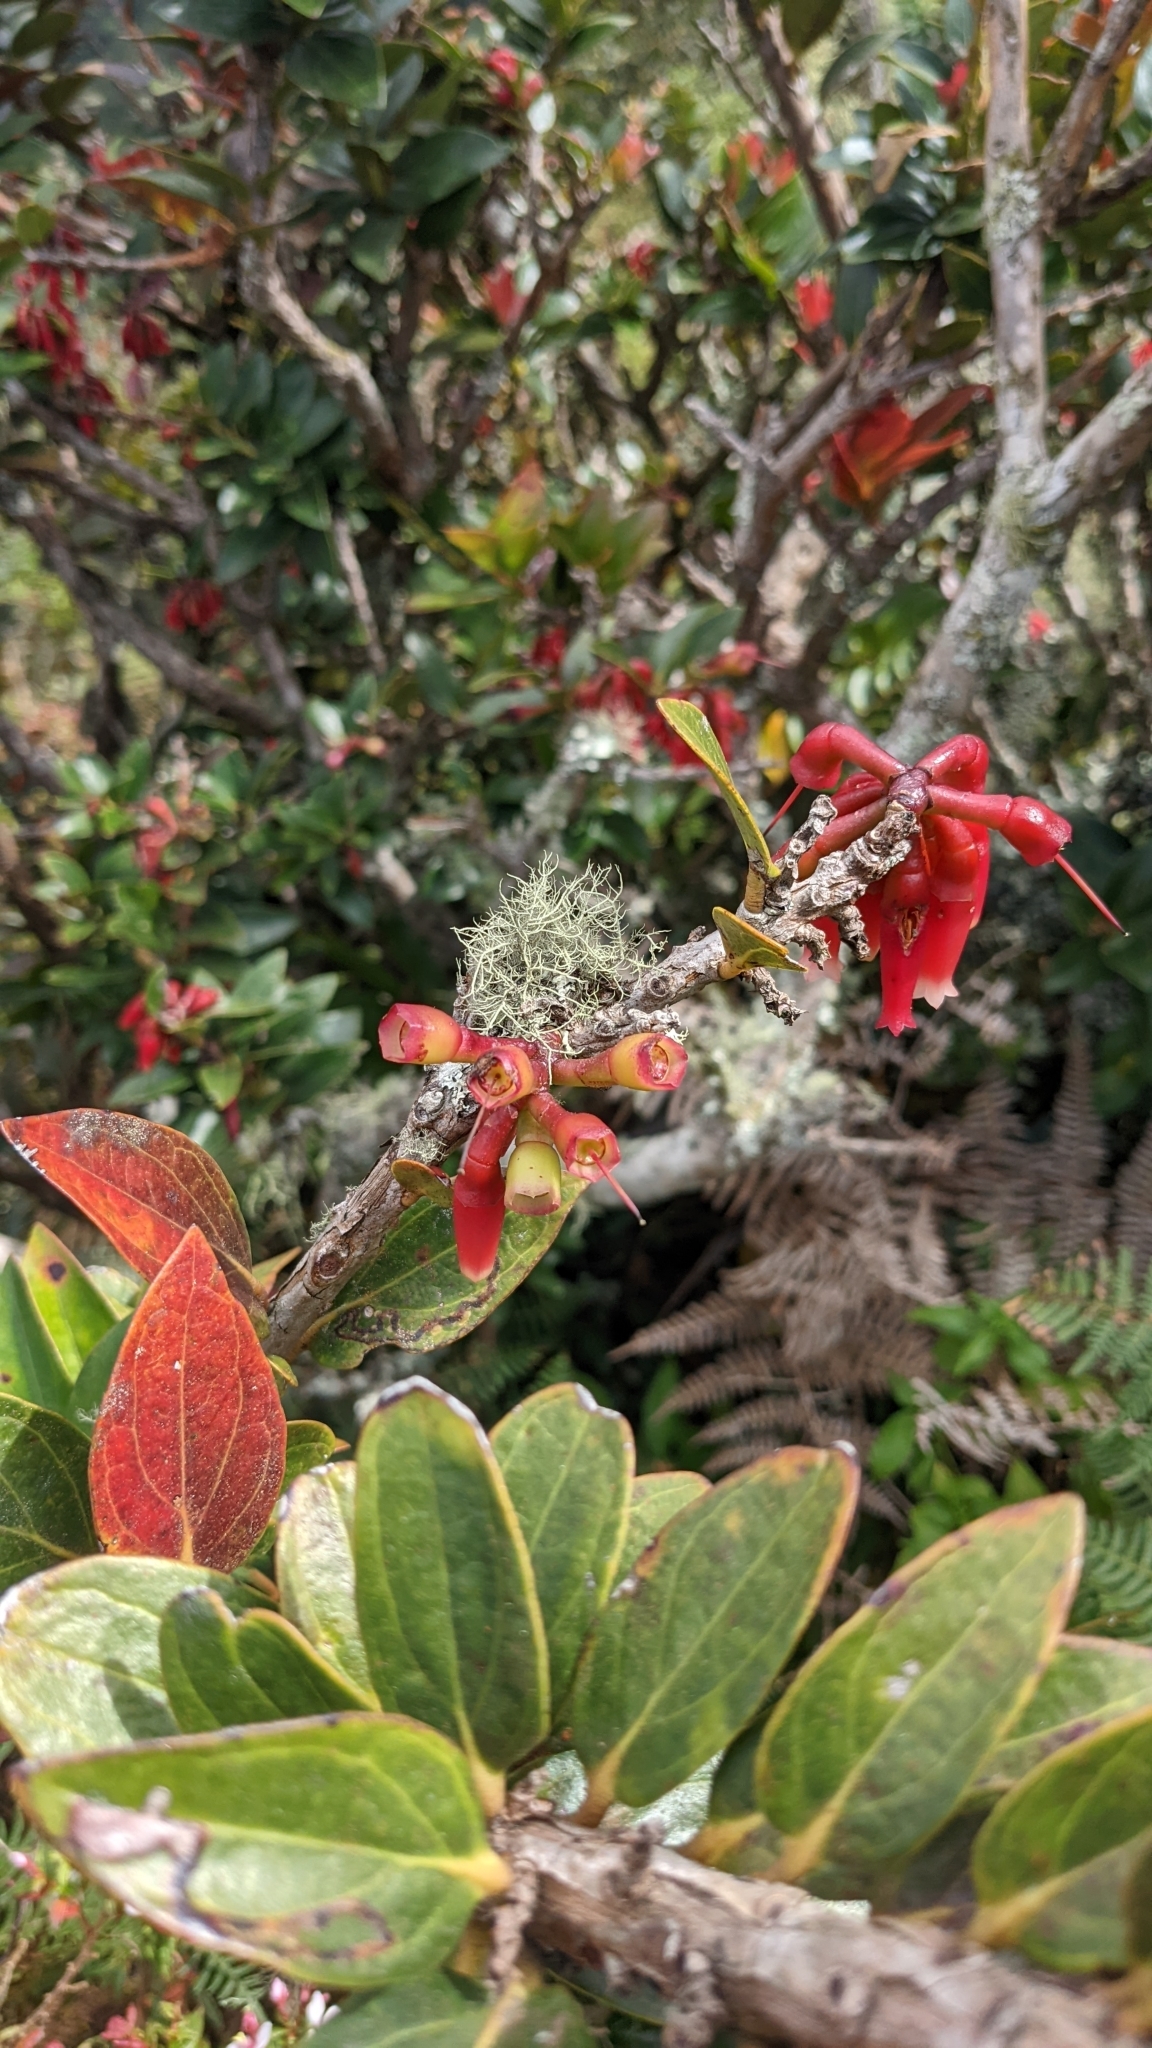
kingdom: Plantae
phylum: Tracheophyta
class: Magnoliopsida
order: Ericales
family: Ericaceae
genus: Macleania
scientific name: Macleania rupestris
